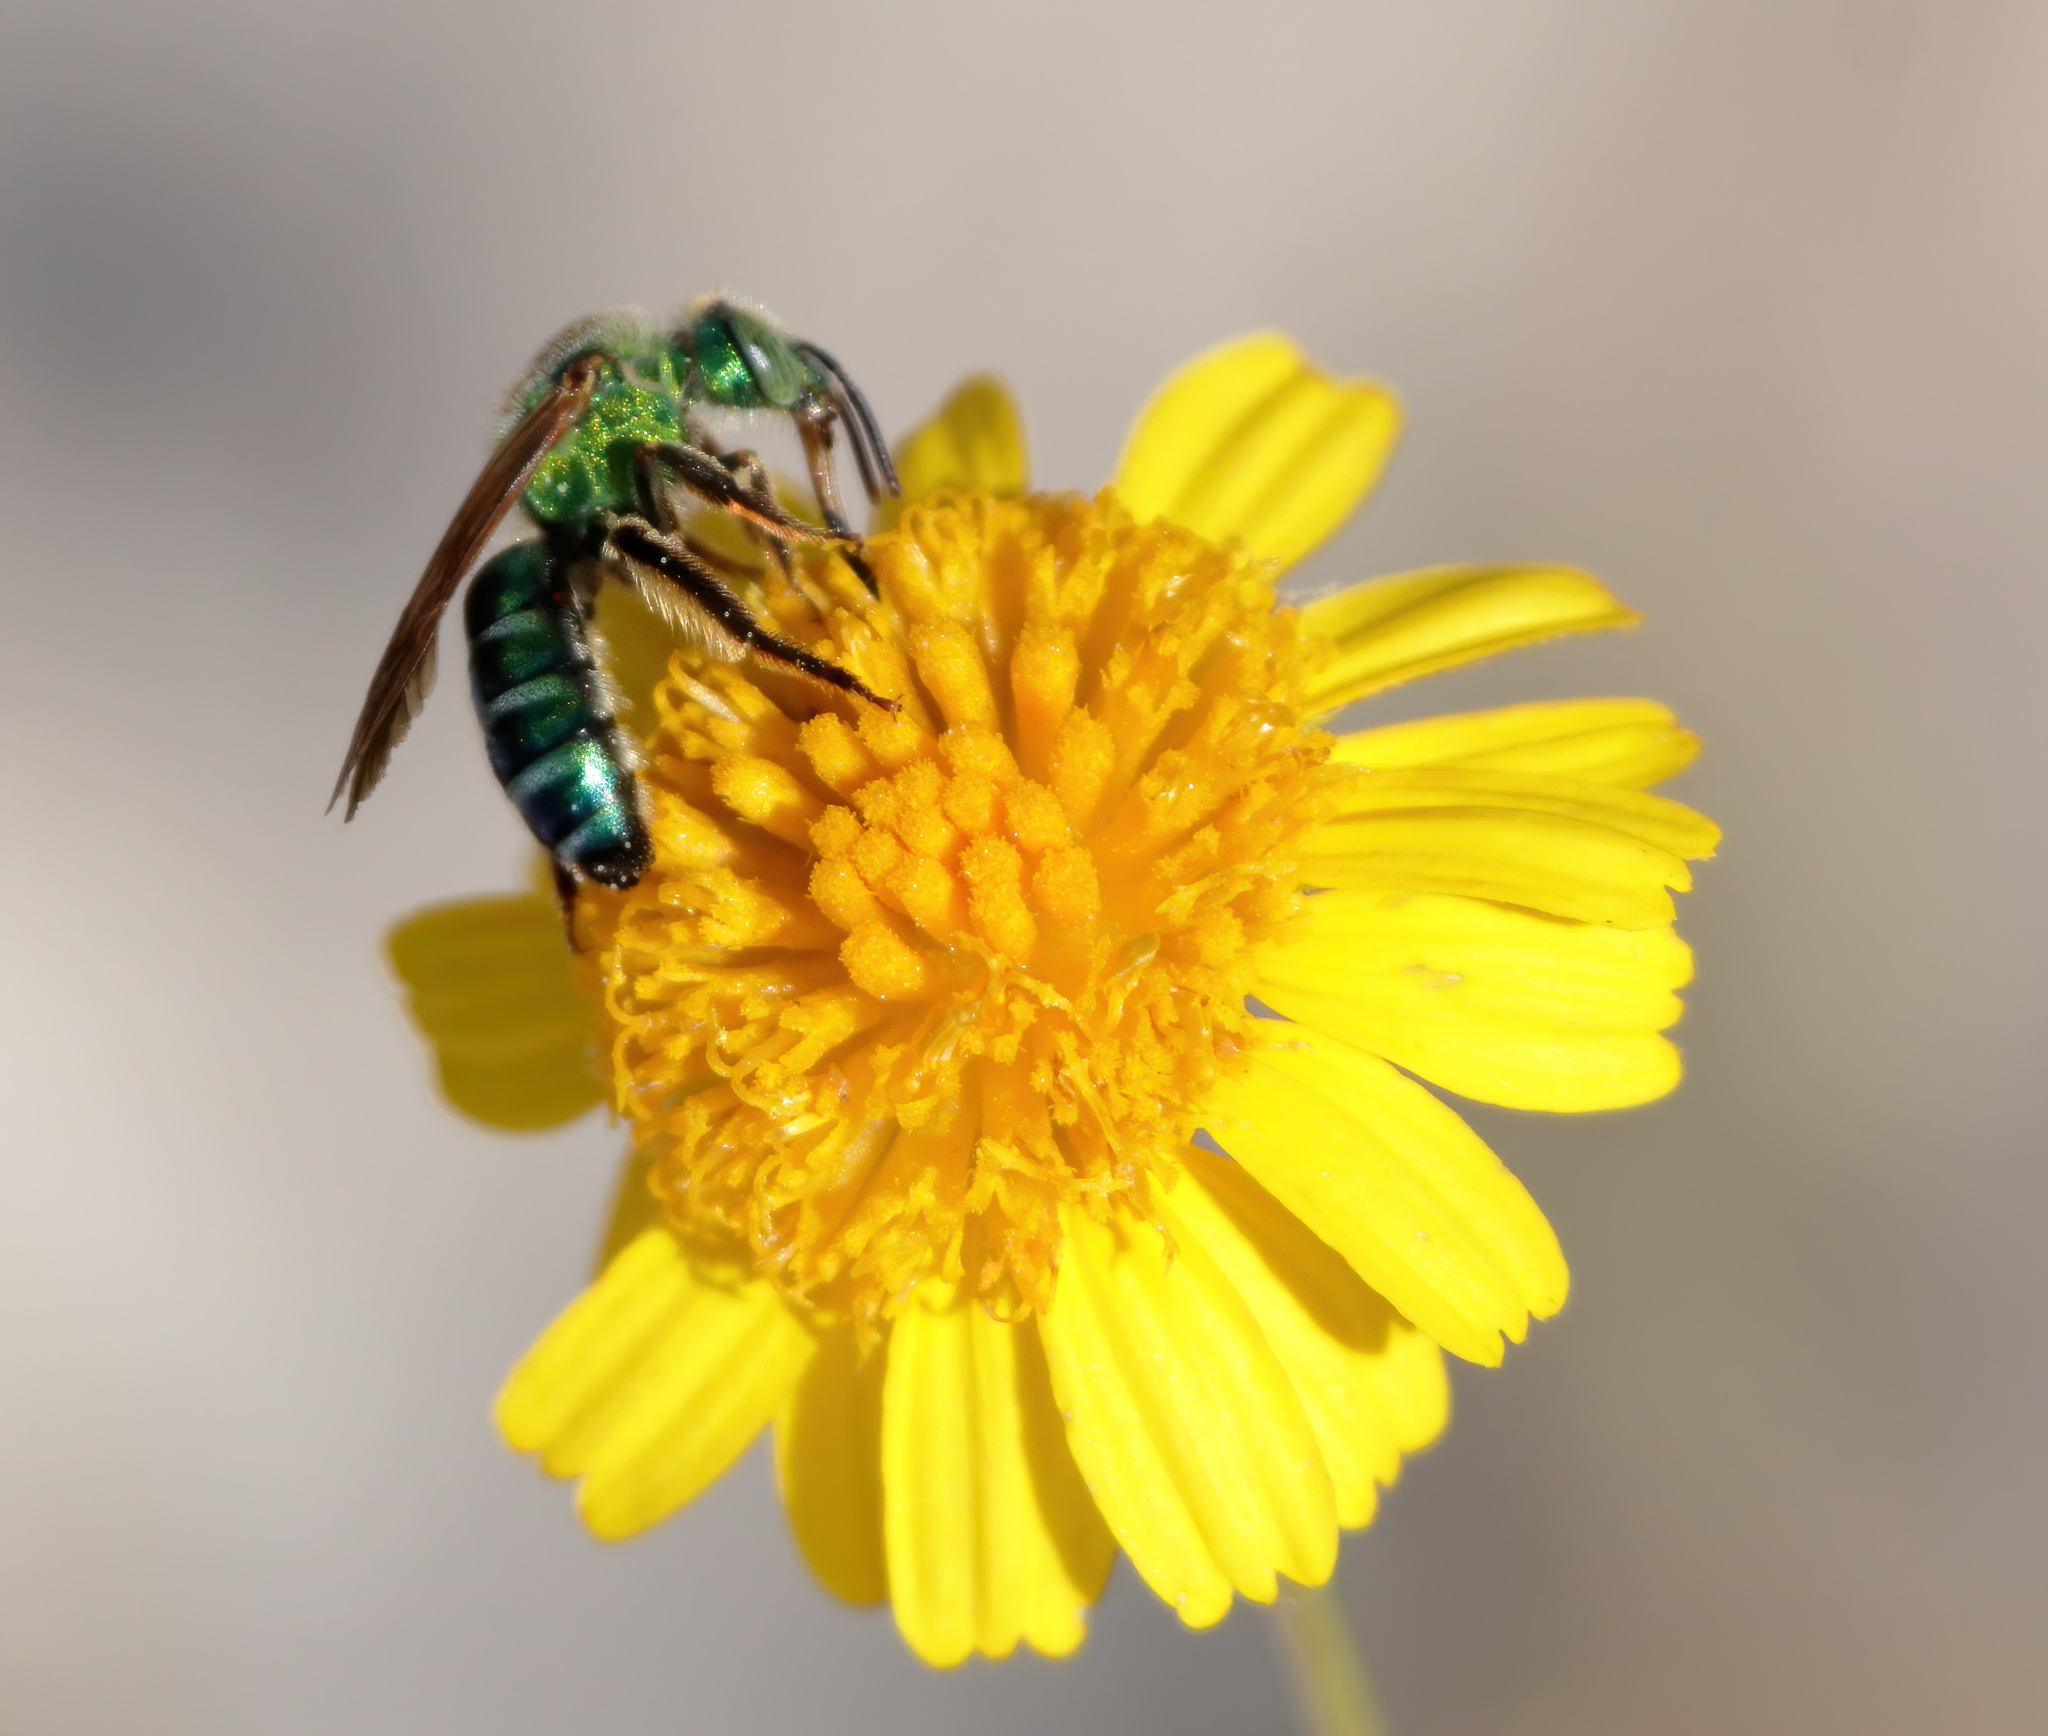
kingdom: Animalia
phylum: Arthropoda
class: Insecta
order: Hymenoptera
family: Halictidae
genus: Agapostemon
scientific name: Agapostemon splendens
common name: Brown-winged striped sweat bee
